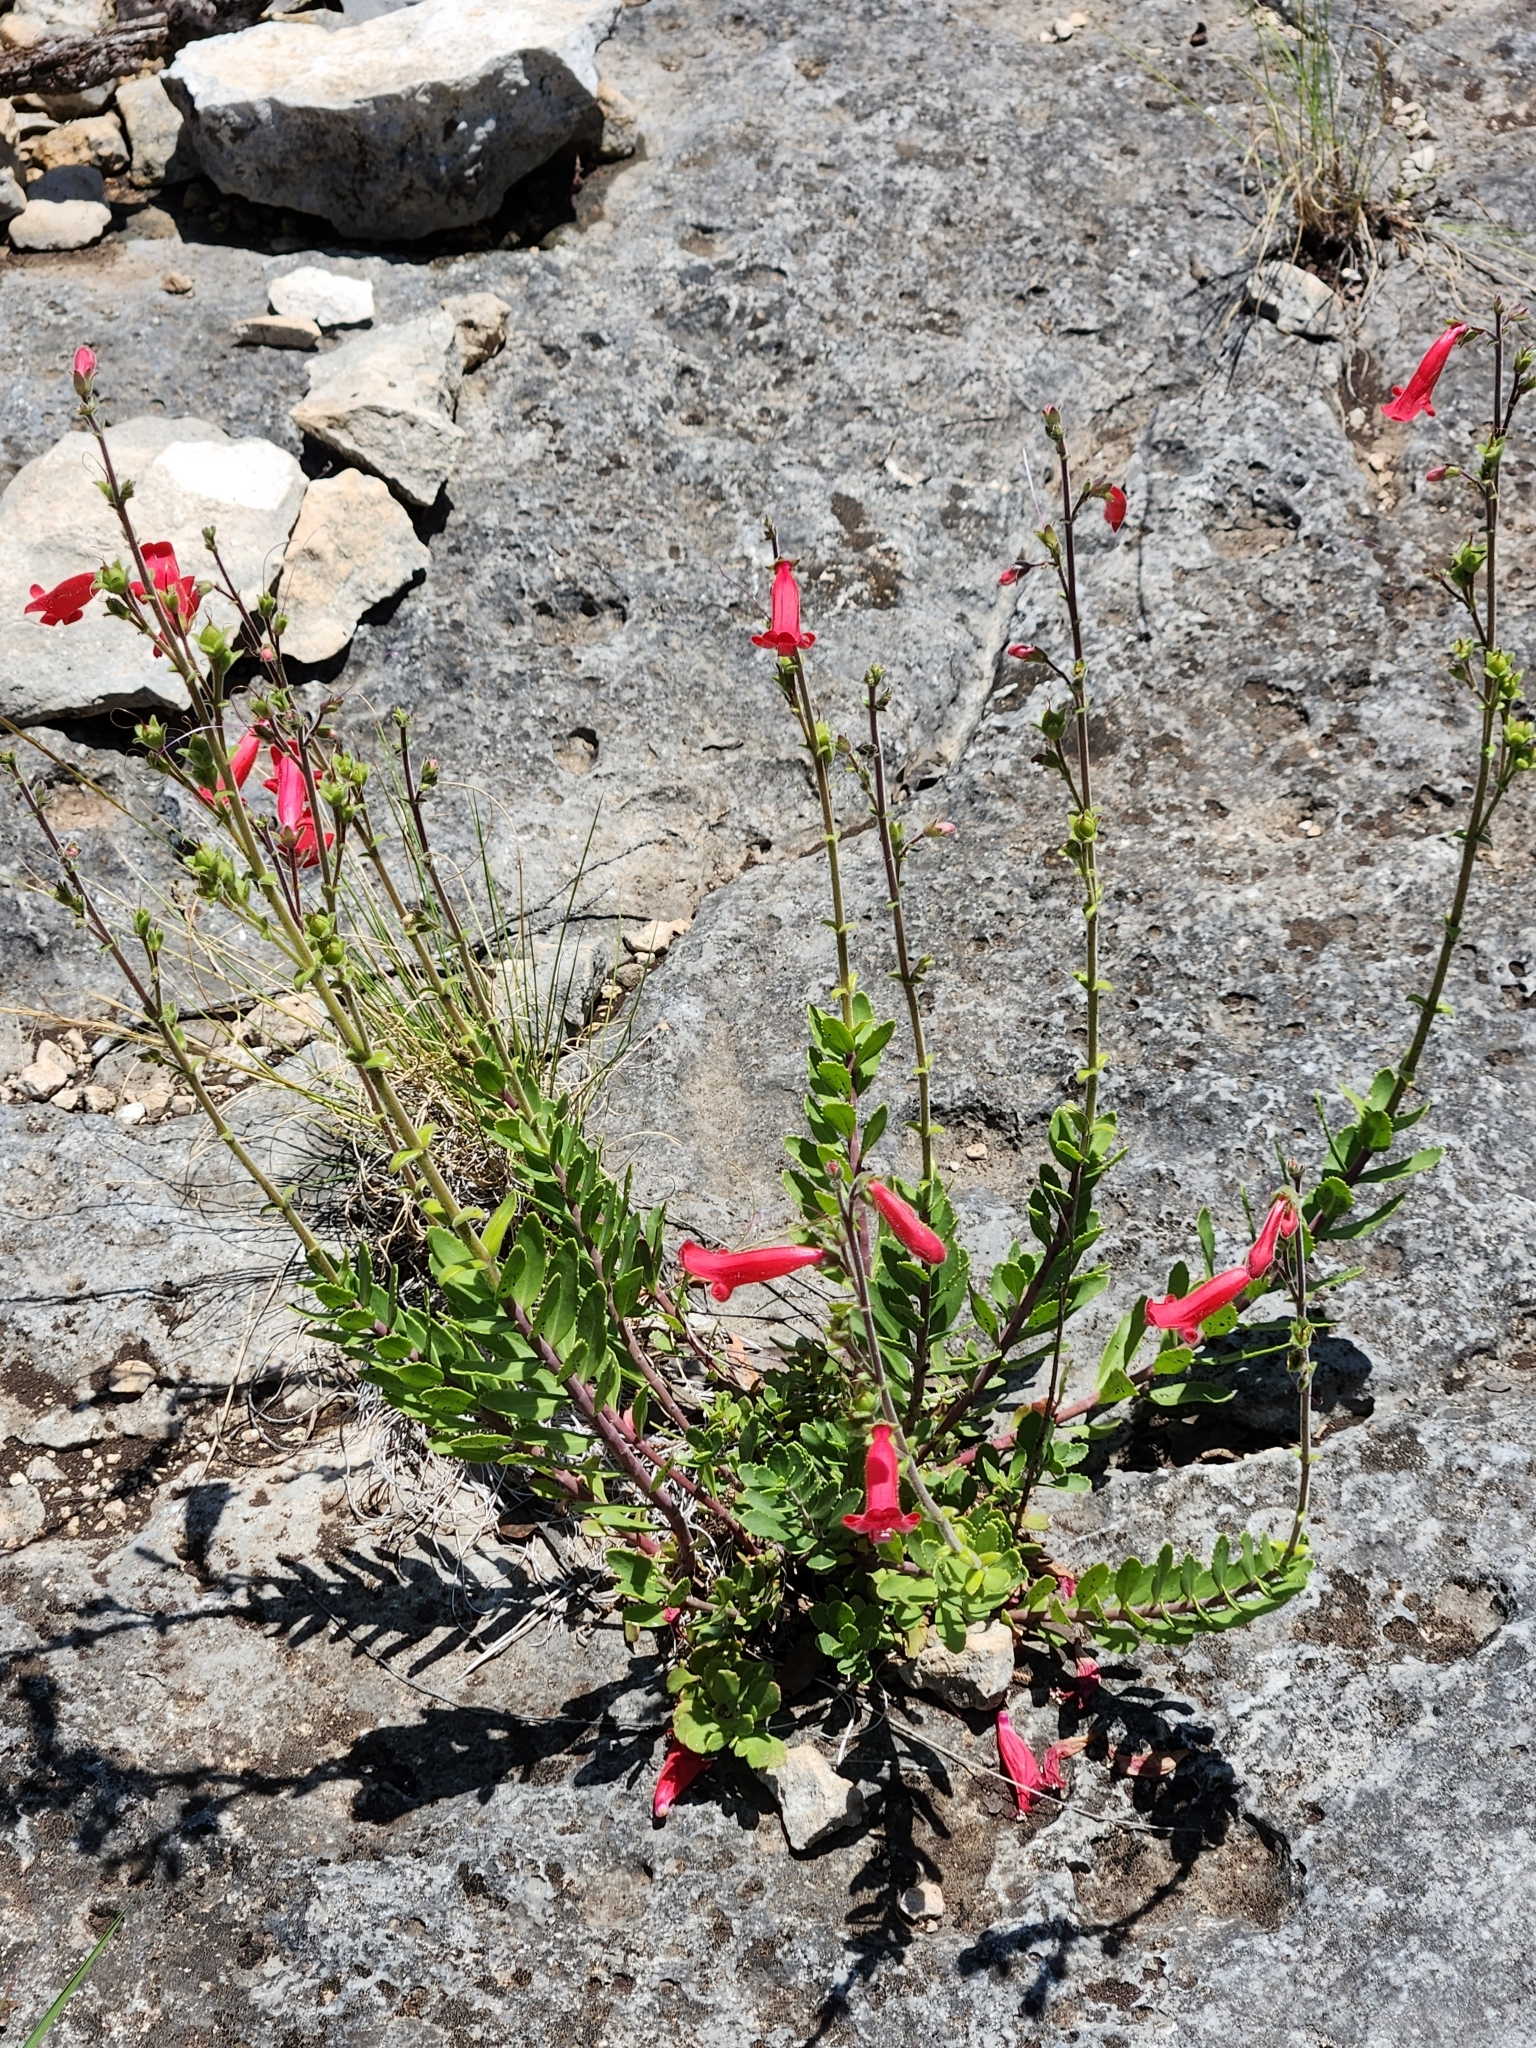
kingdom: Plantae
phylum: Tracheophyta
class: Magnoliopsida
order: Lamiales
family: Plantaginaceae
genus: Penstemon
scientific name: Penstemon baccharifolius
